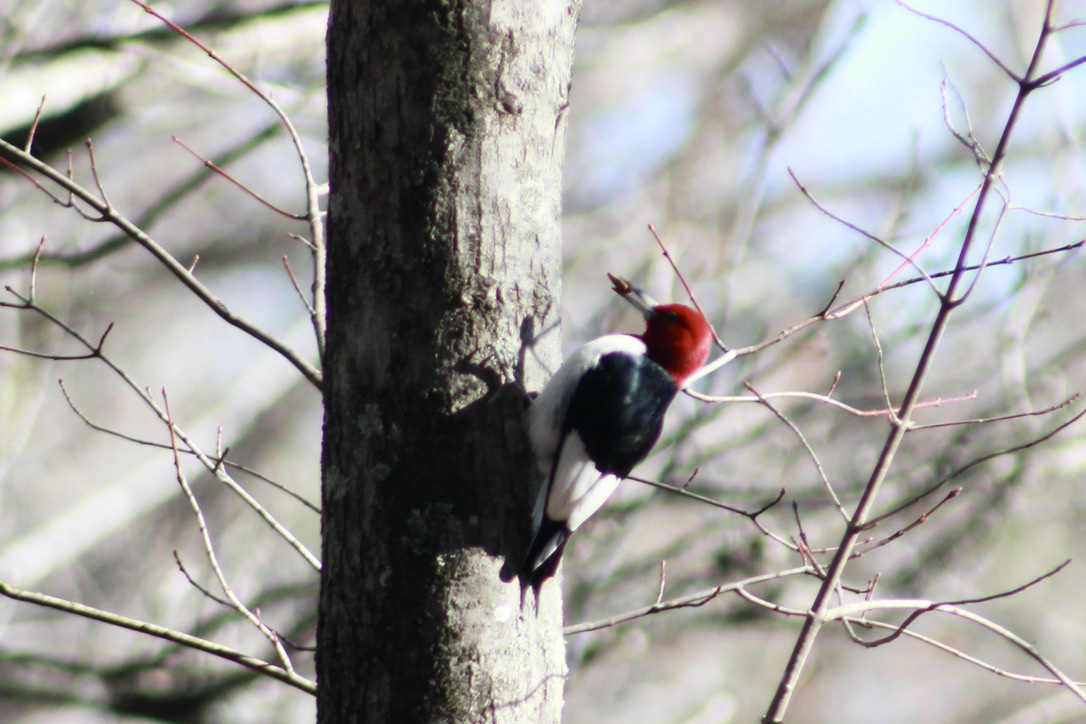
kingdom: Animalia
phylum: Chordata
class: Aves
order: Piciformes
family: Picidae
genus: Melanerpes
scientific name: Melanerpes erythrocephalus
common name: Red-headed woodpecker
